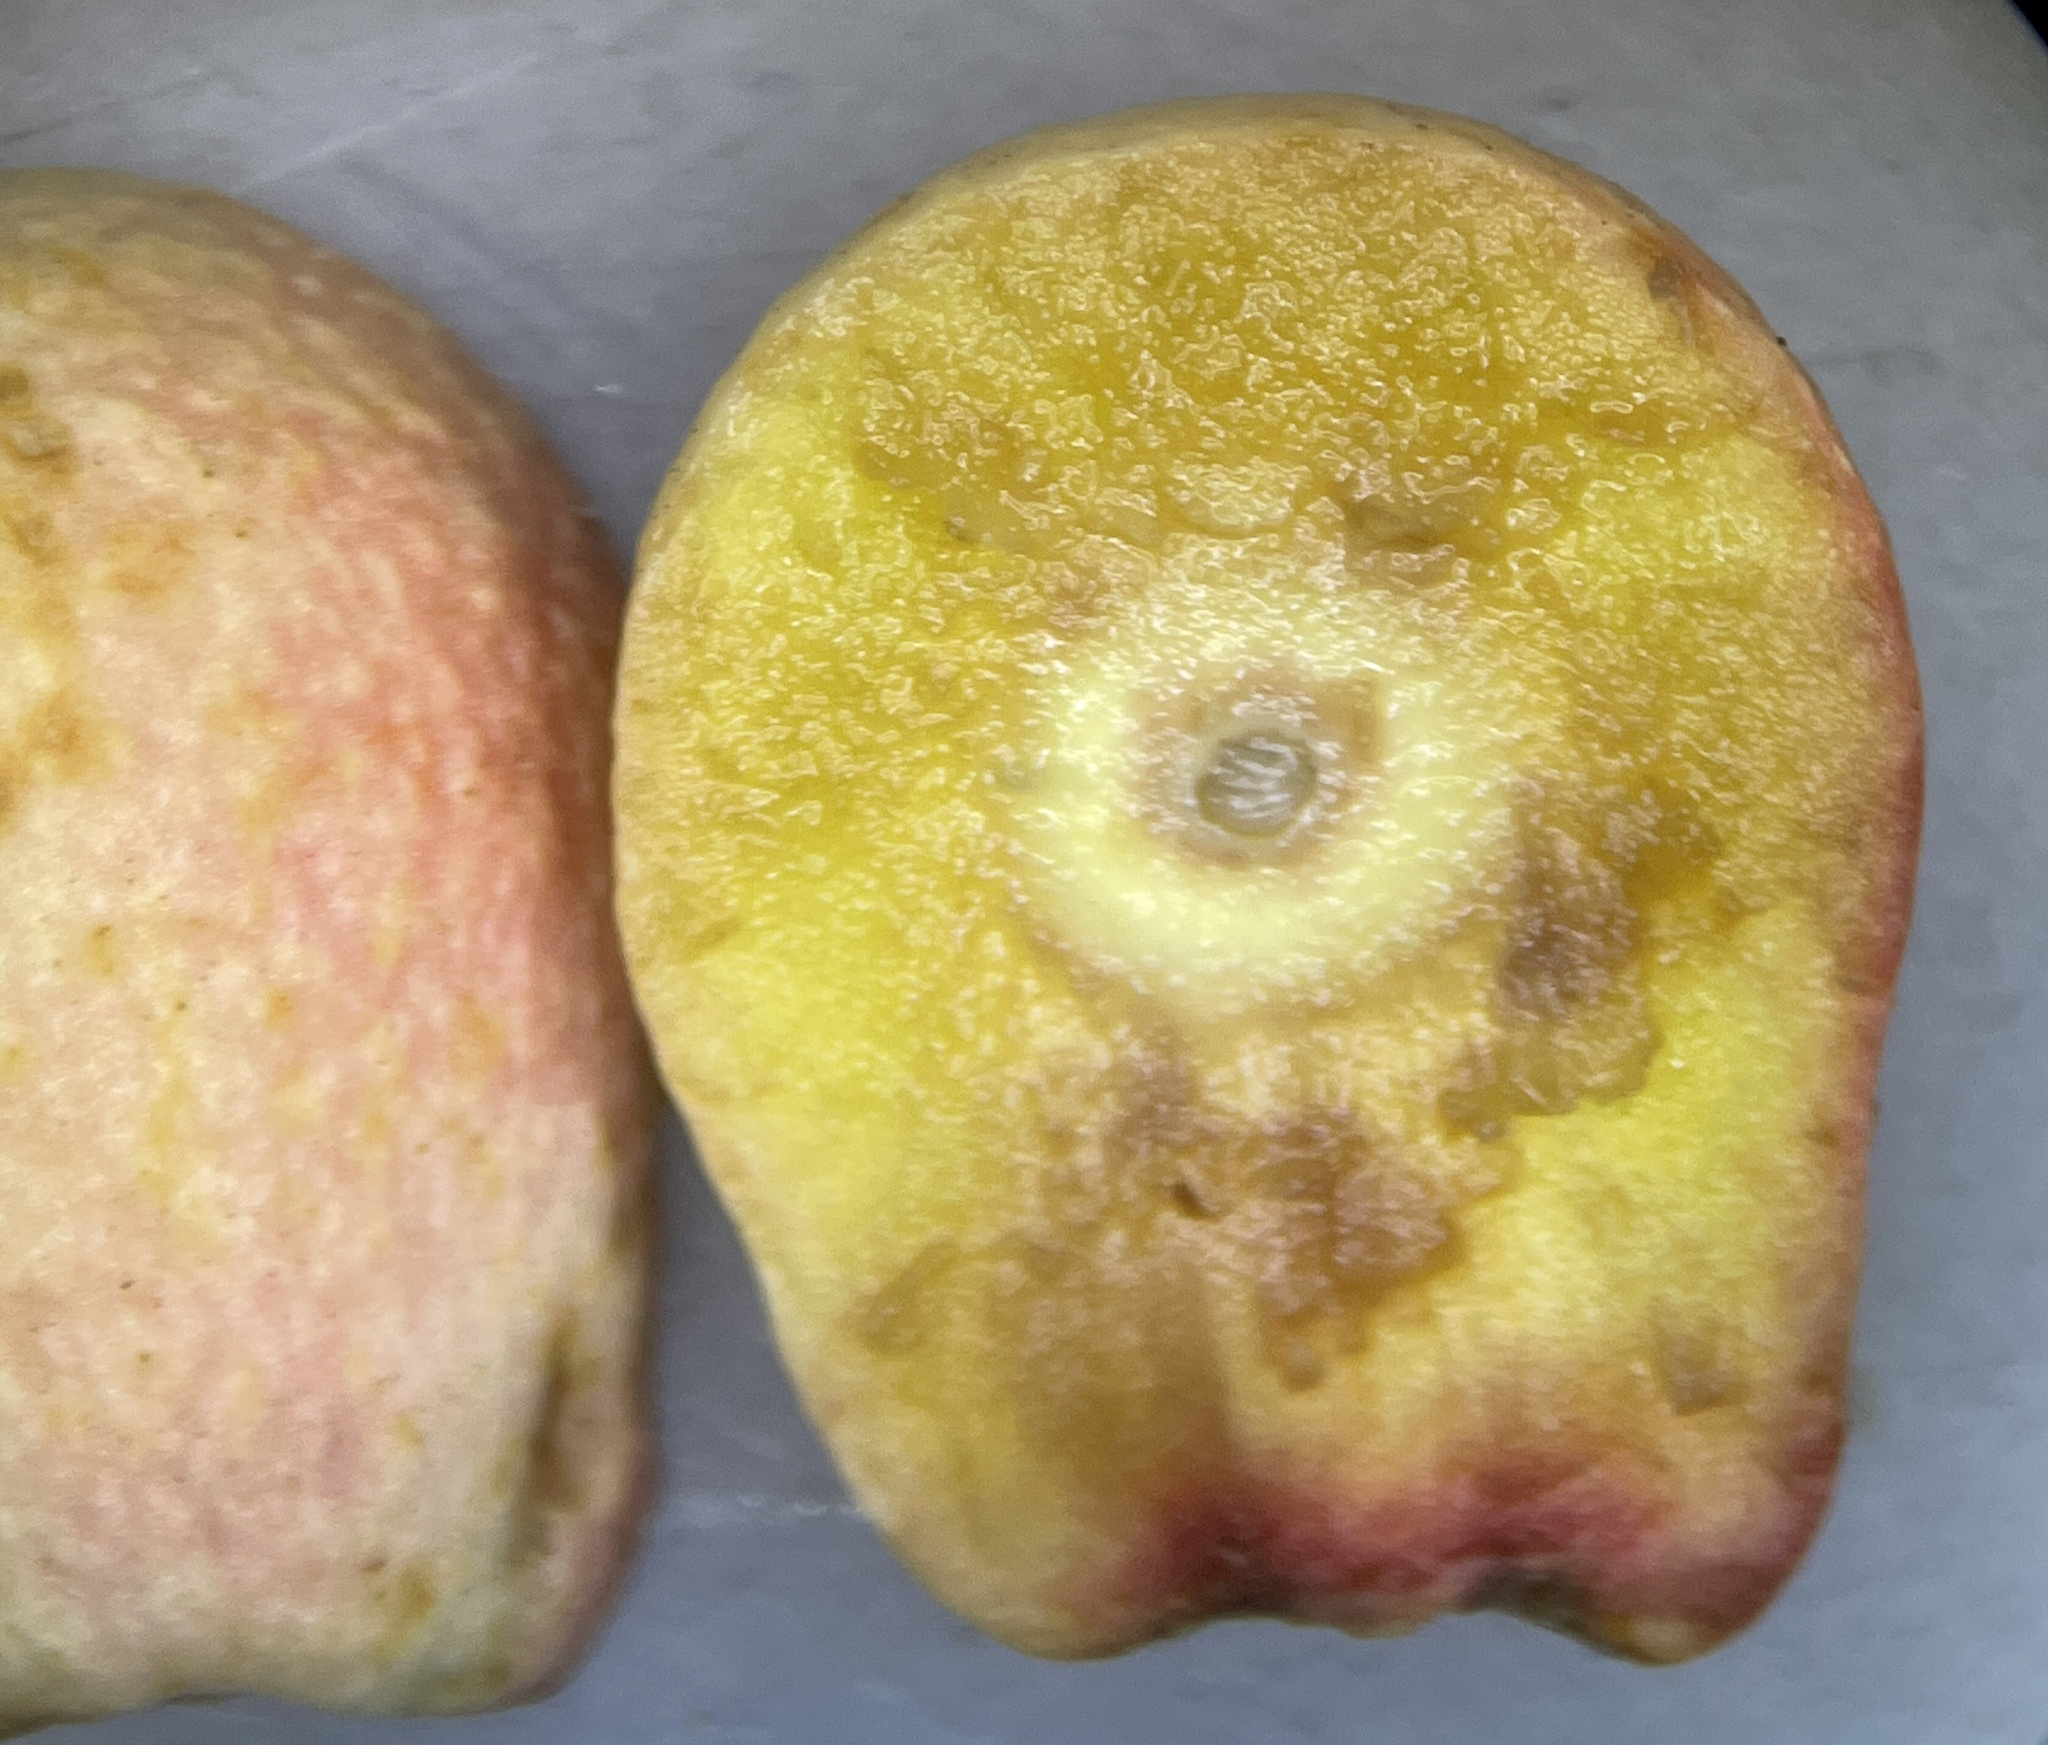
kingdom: Animalia
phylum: Arthropoda
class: Insecta
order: Hymenoptera
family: Cynipidae
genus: Amphibolips
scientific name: Amphibolips
